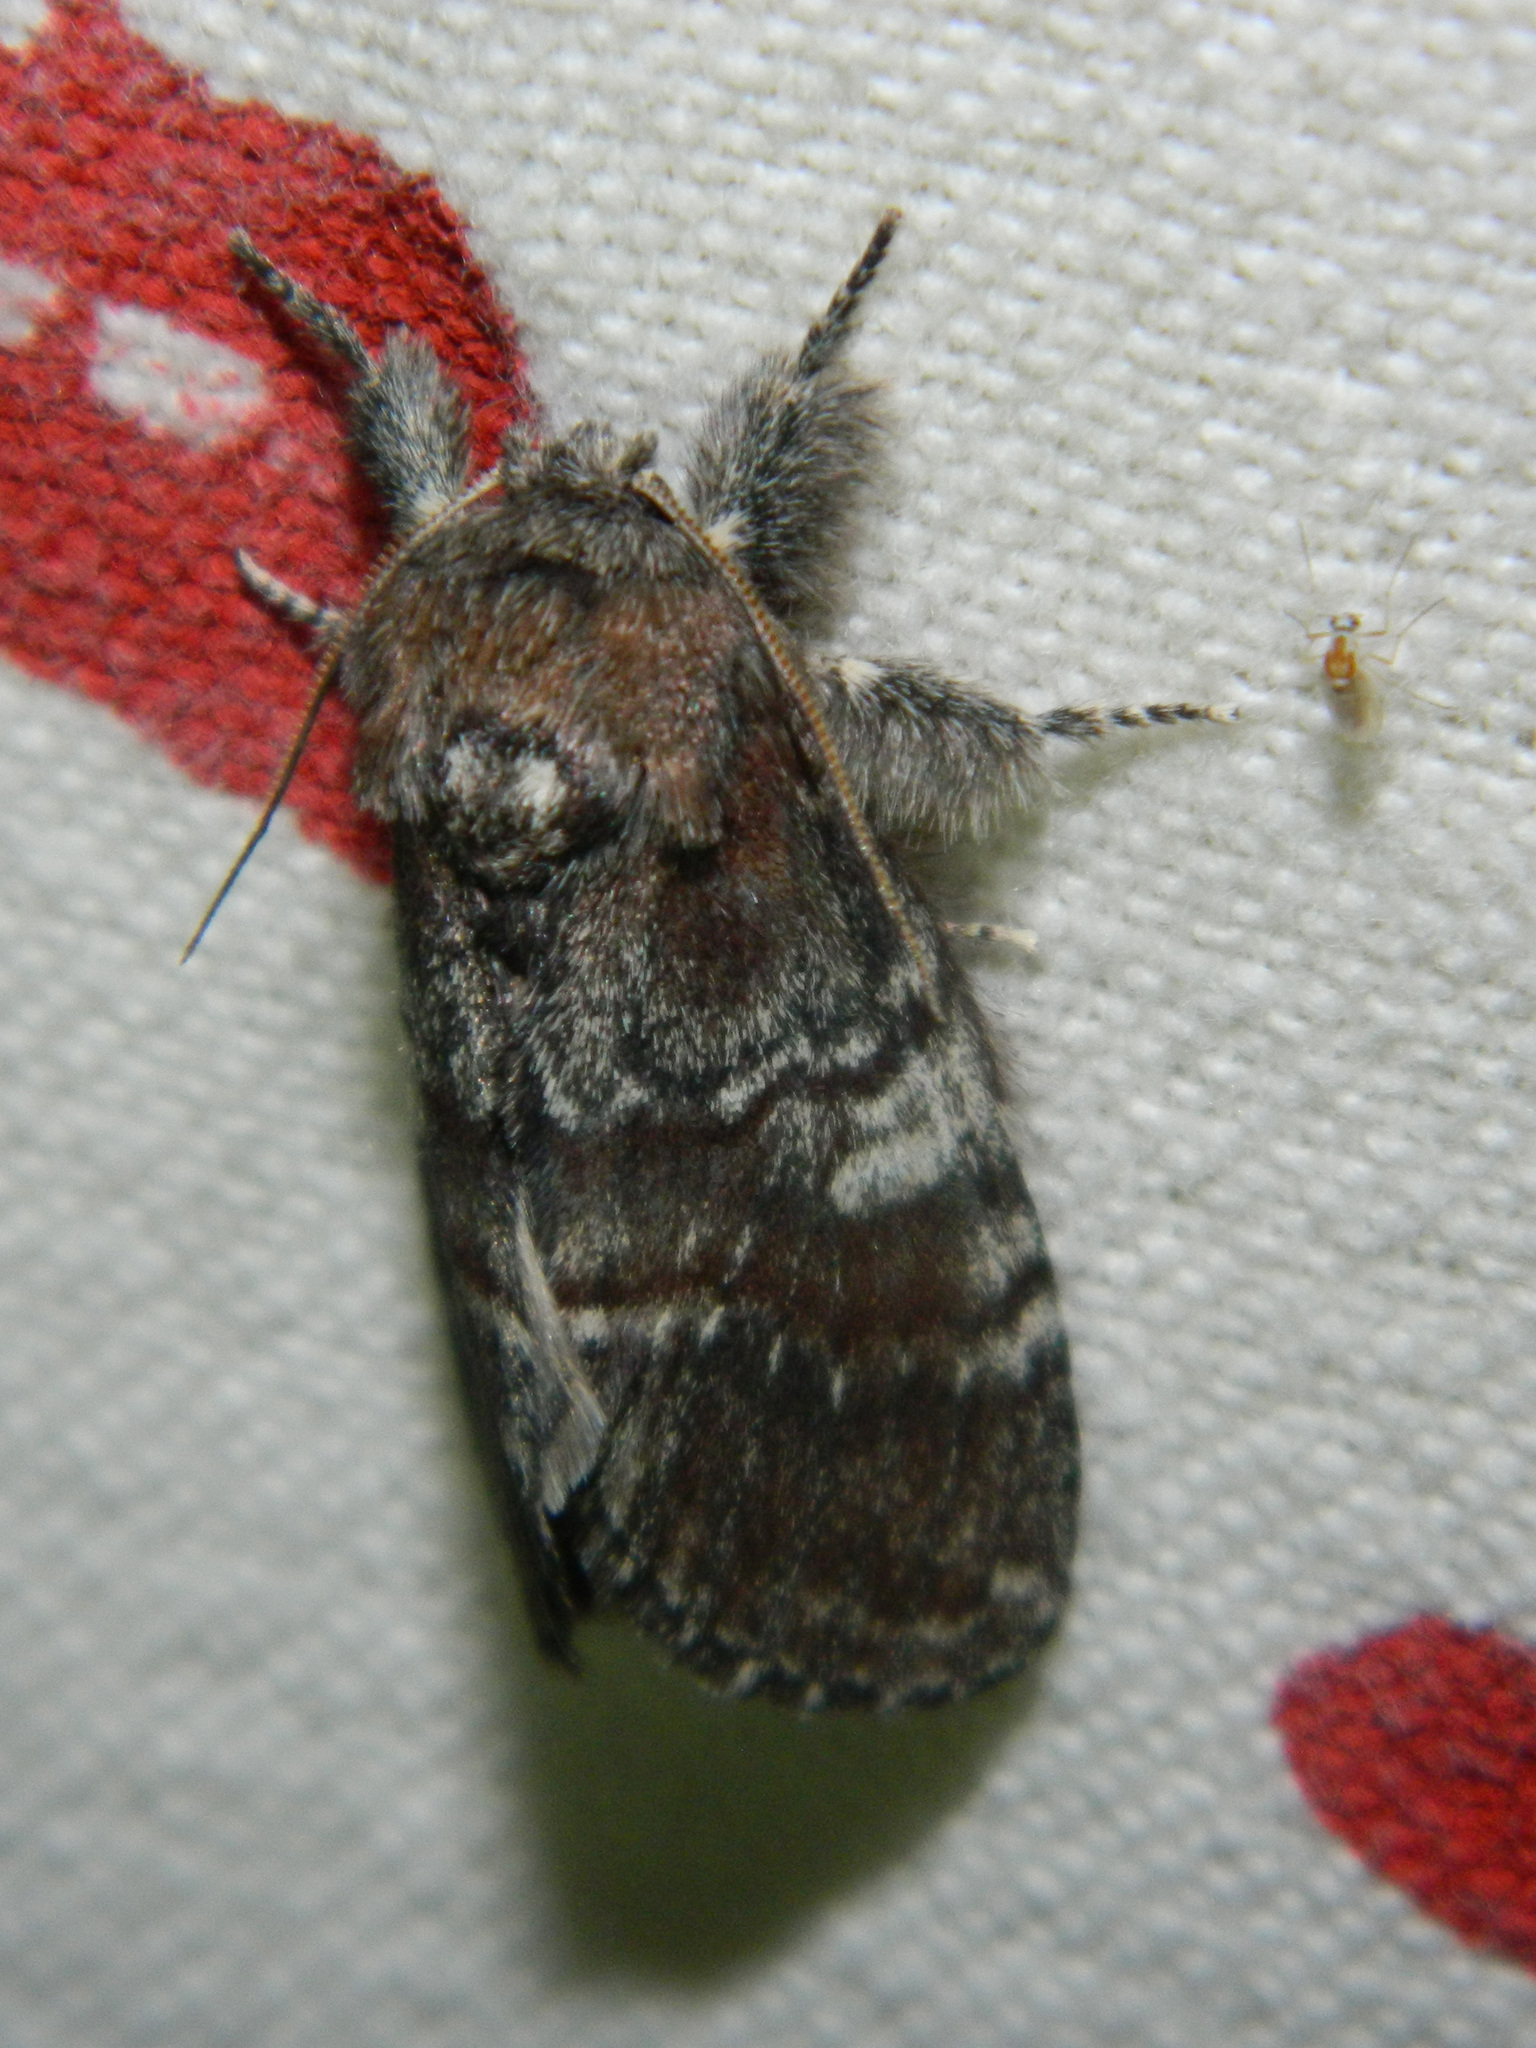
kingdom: Animalia
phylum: Arthropoda
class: Insecta
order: Lepidoptera
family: Notodontidae
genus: Peridea
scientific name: Peridea ferruginea
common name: Chocolate prominent
